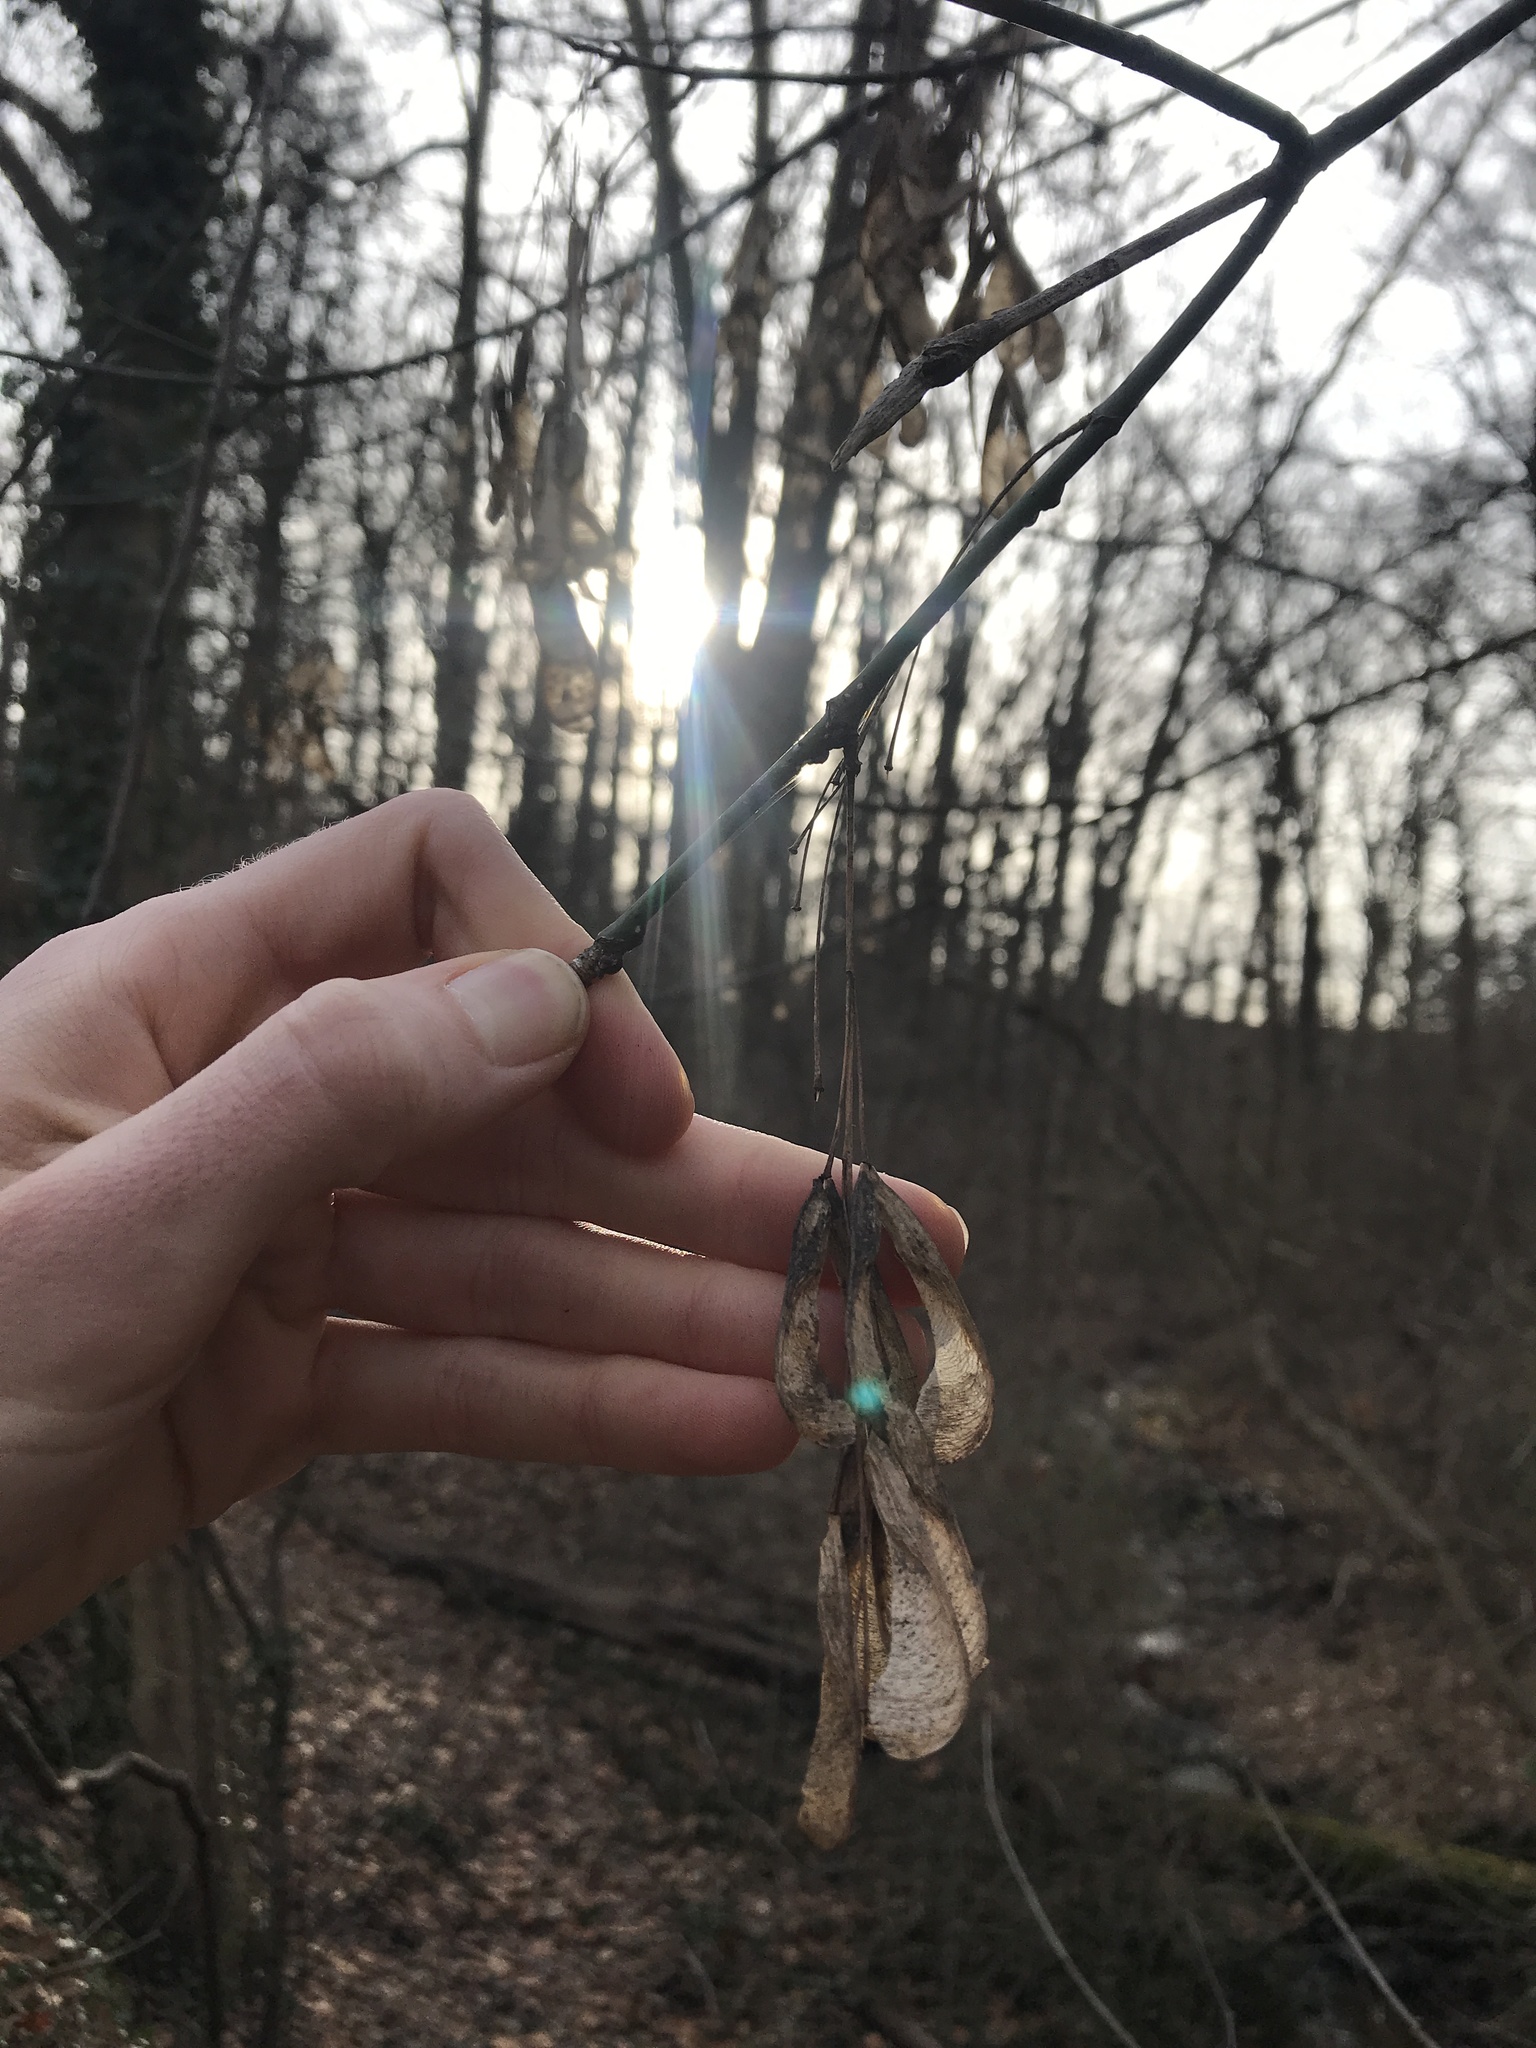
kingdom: Plantae
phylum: Tracheophyta
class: Magnoliopsida
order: Sapindales
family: Sapindaceae
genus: Acer
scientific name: Acer negundo
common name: Ashleaf maple
